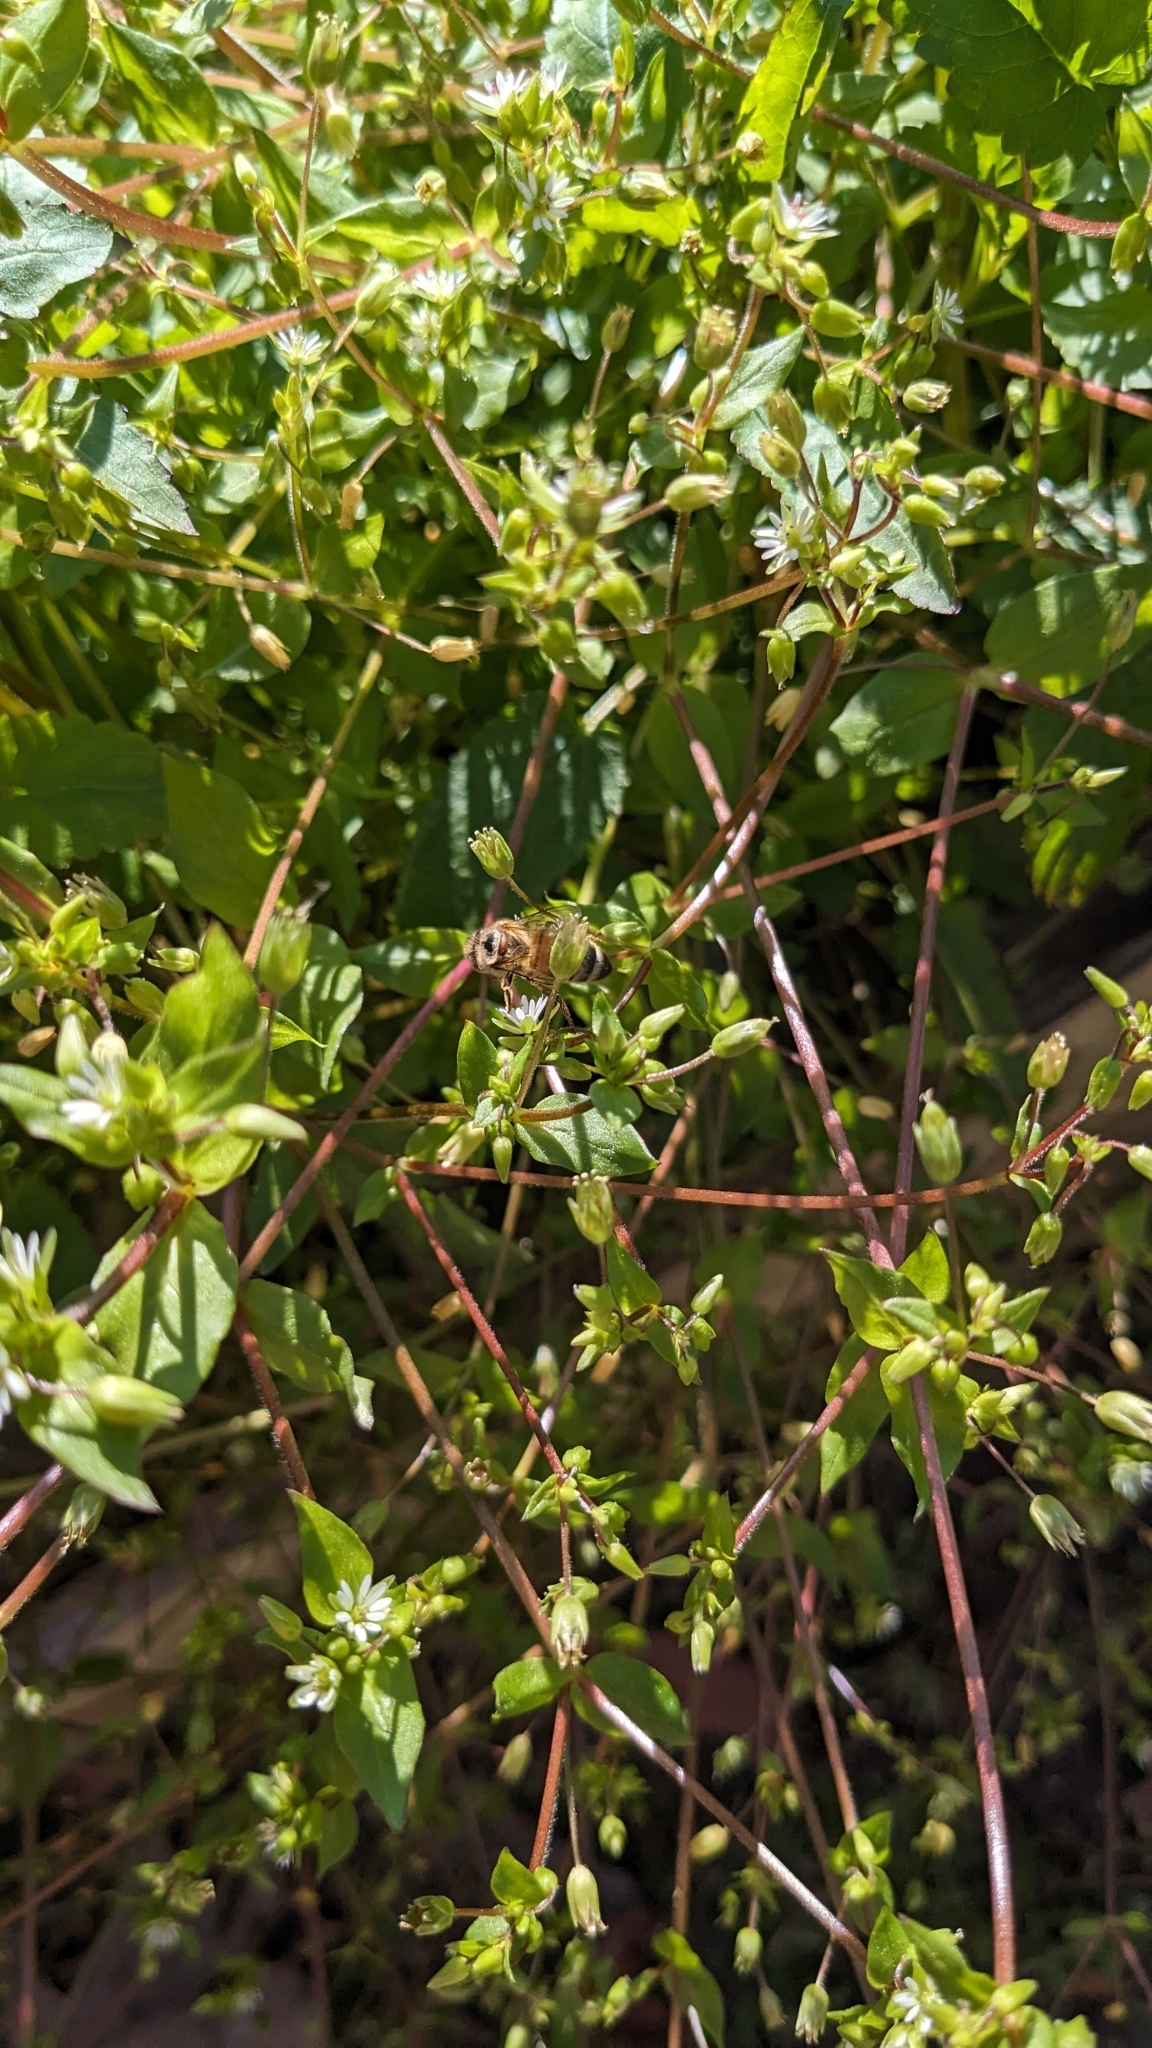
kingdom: Animalia
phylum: Arthropoda
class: Insecta
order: Hymenoptera
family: Apidae
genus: Apis
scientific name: Apis mellifera
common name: Honey bee
